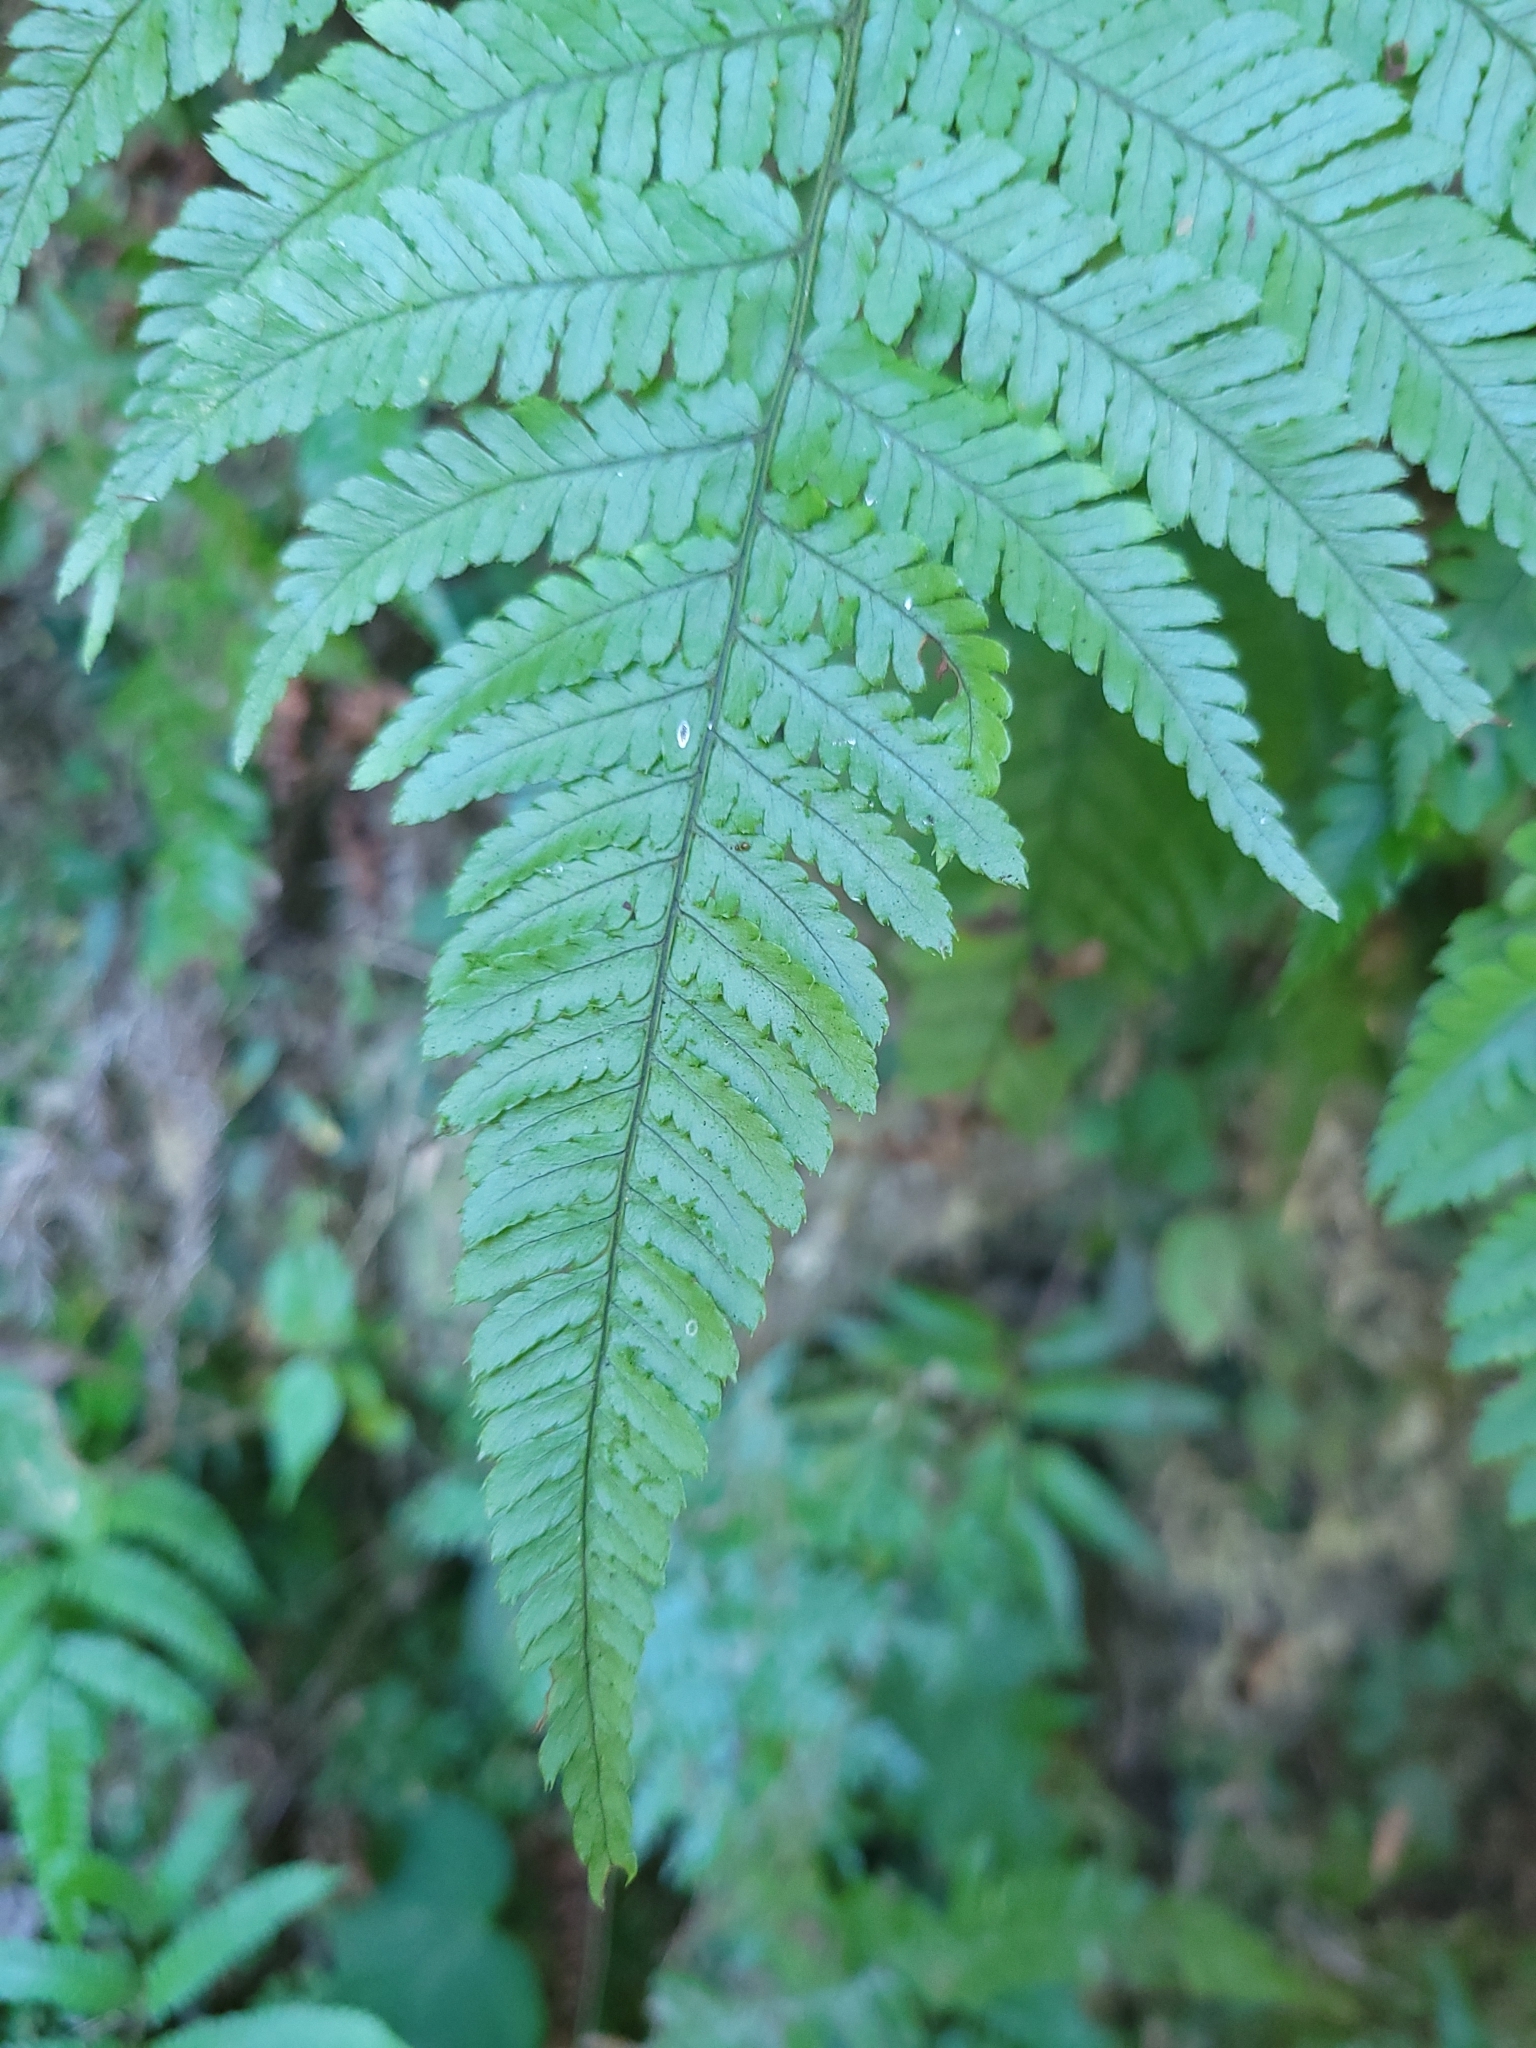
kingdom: Plantae
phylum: Tracheophyta
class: Polypodiopsida
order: Polypodiales
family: Dryopteridaceae
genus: Dryopteris
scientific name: Dryopteris formosana
